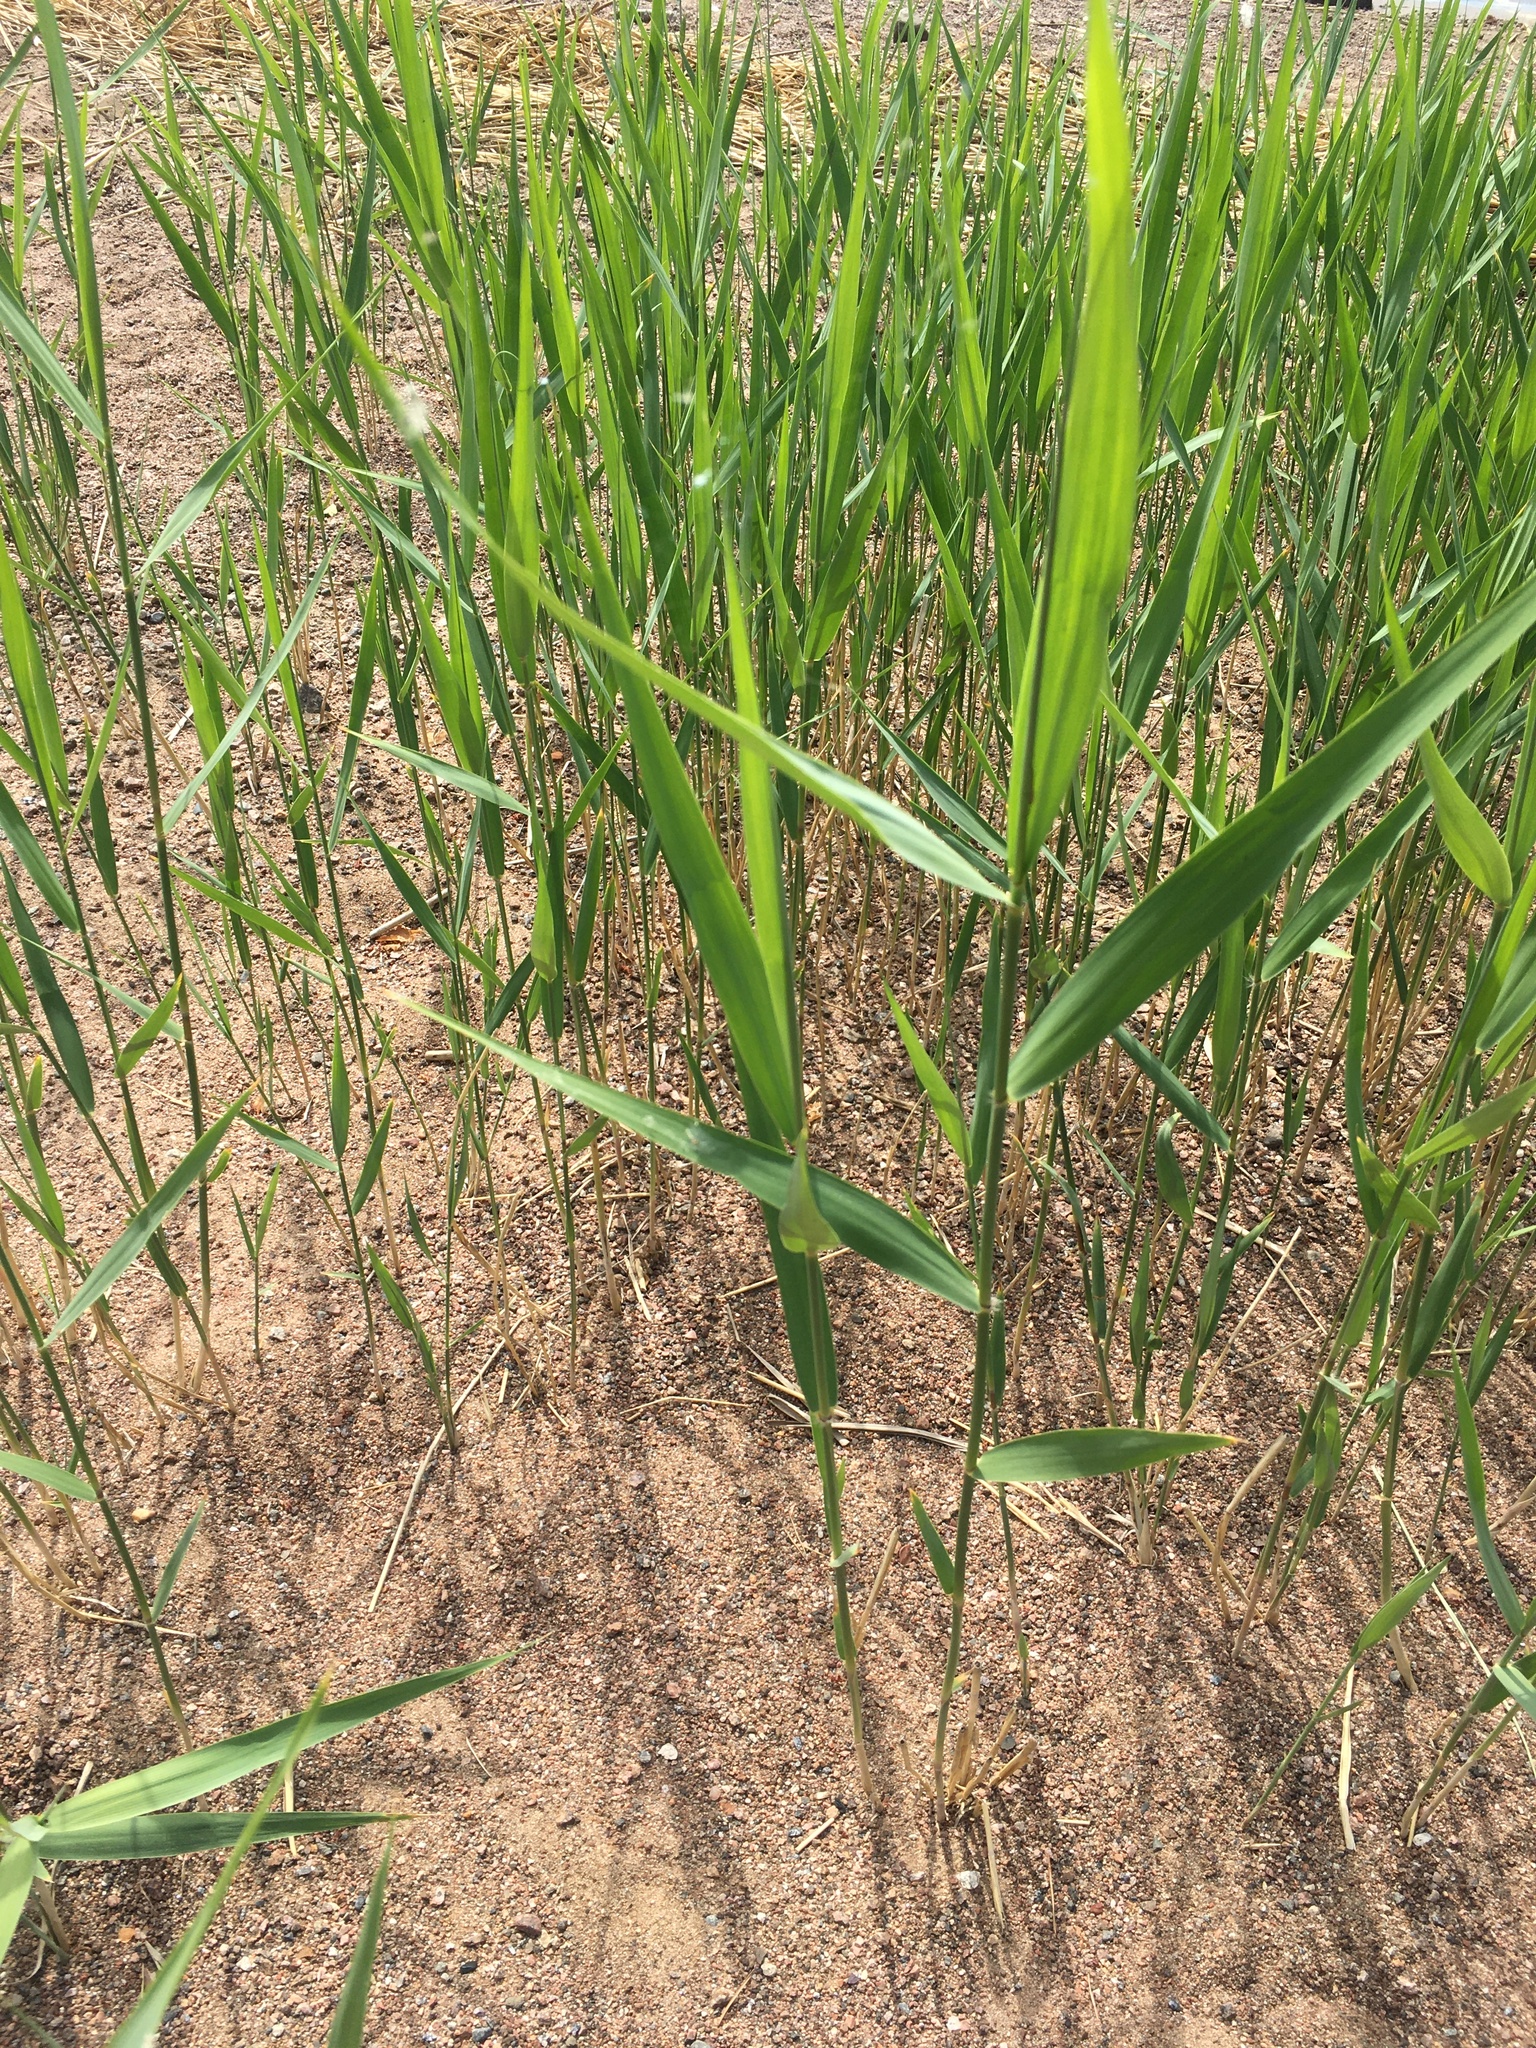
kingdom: Plantae
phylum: Tracheophyta
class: Liliopsida
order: Poales
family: Poaceae
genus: Phragmites
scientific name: Phragmites australis
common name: Common reed
